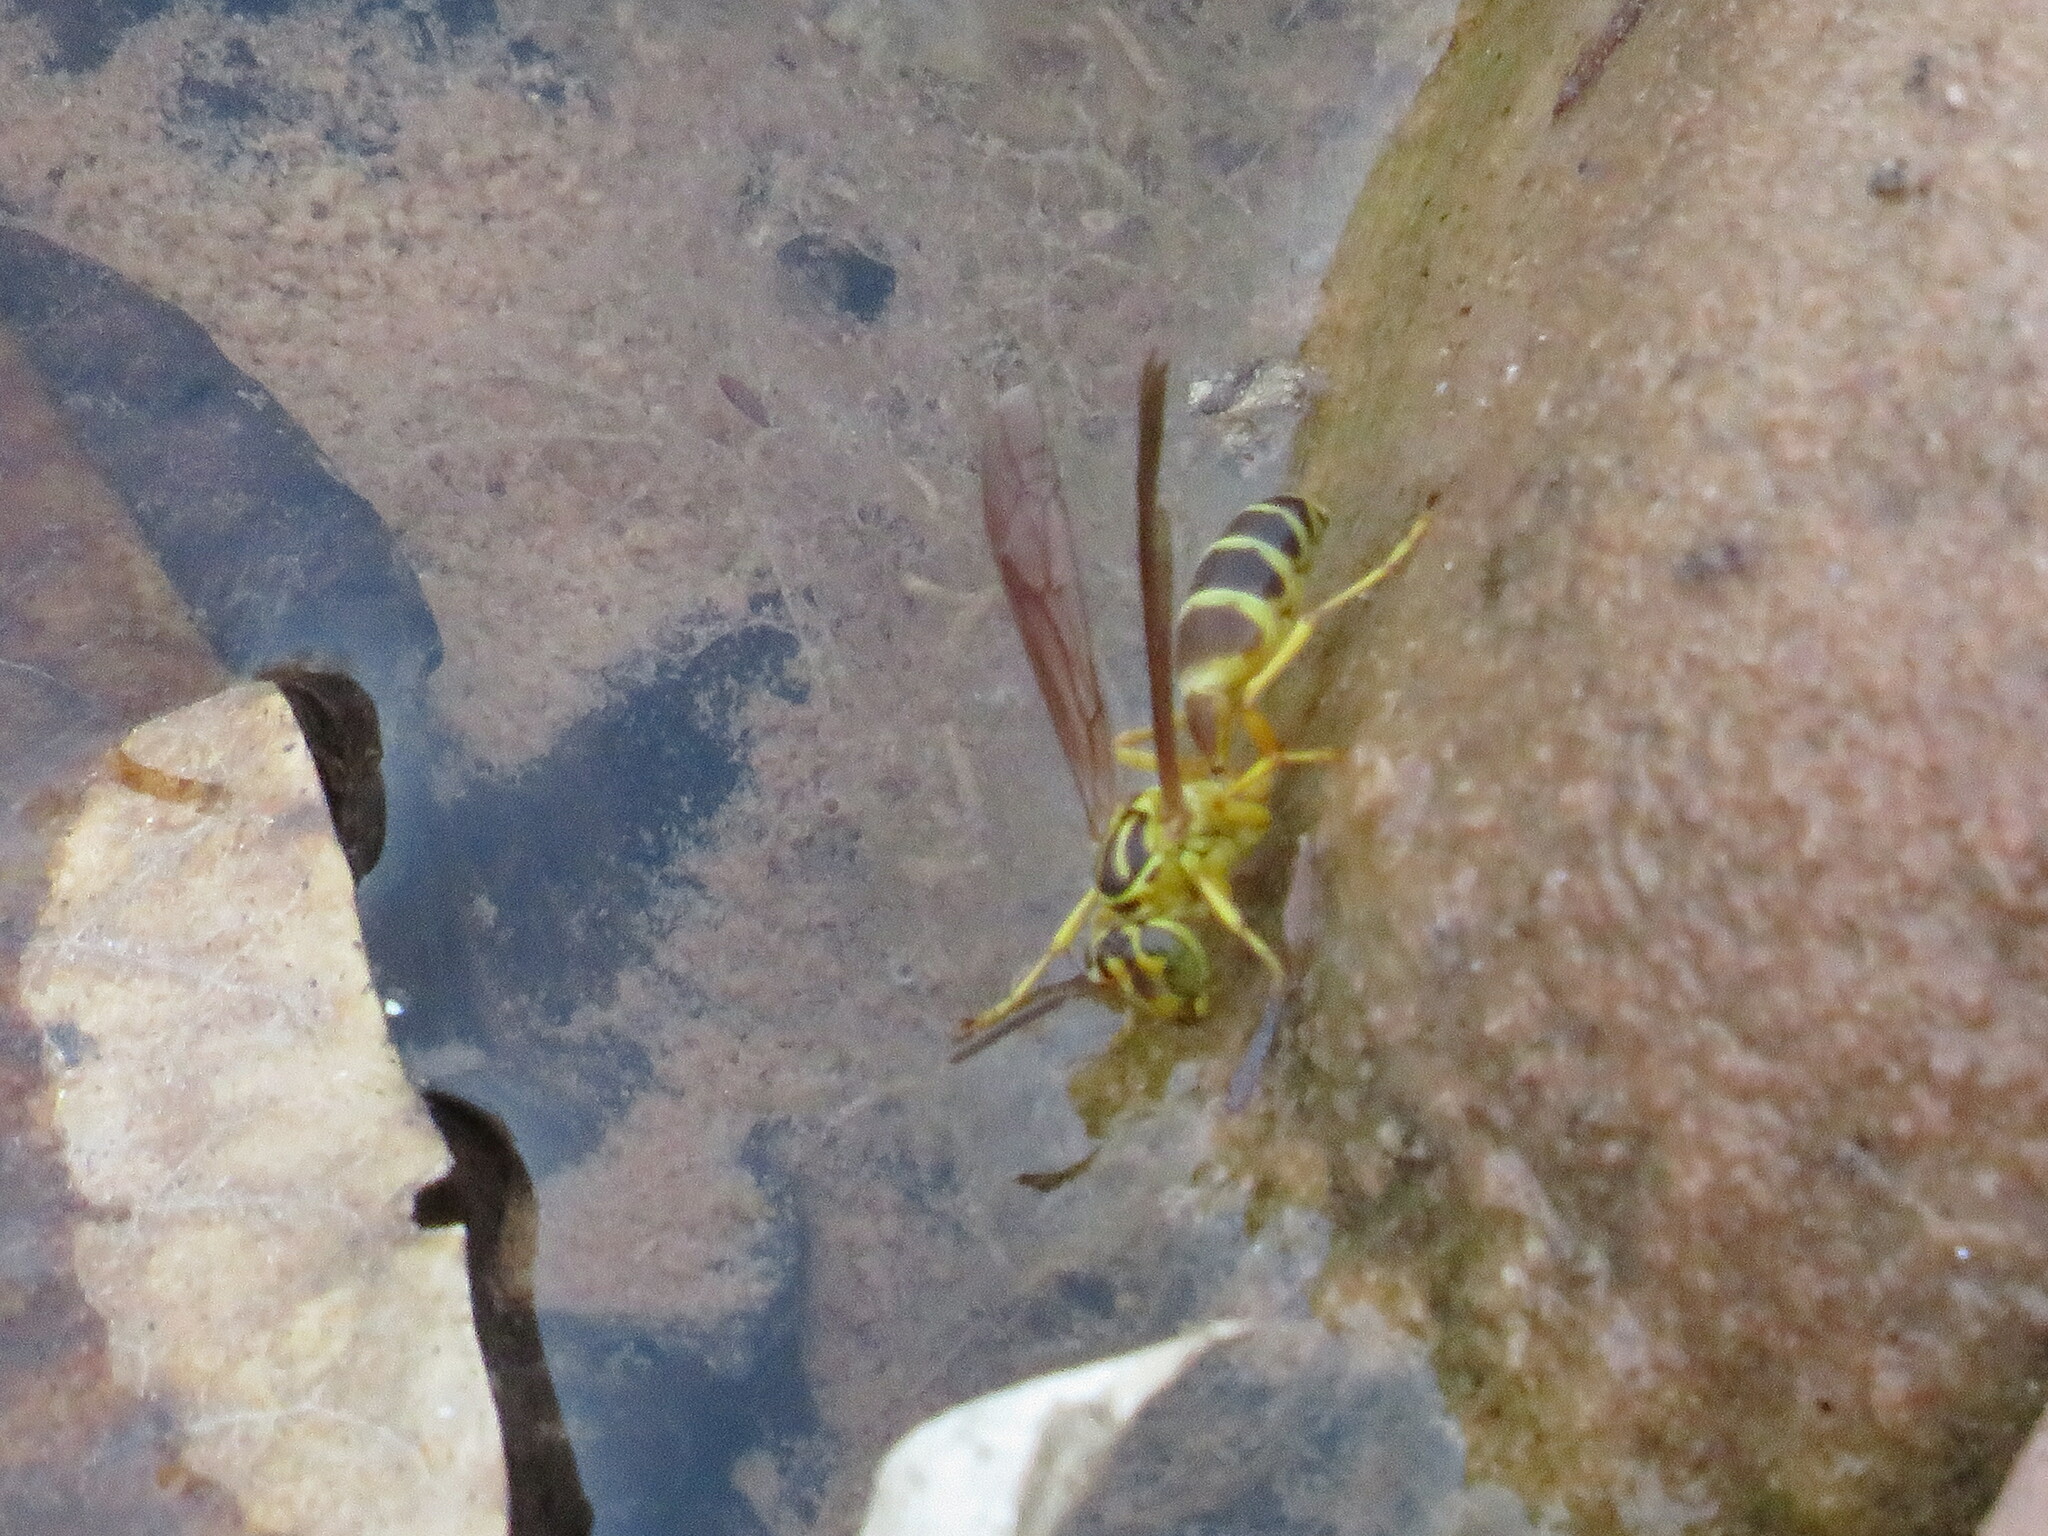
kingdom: Animalia
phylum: Arthropoda
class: Insecta
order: Hymenoptera
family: Vespidae
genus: Agelaia
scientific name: Agelaia
